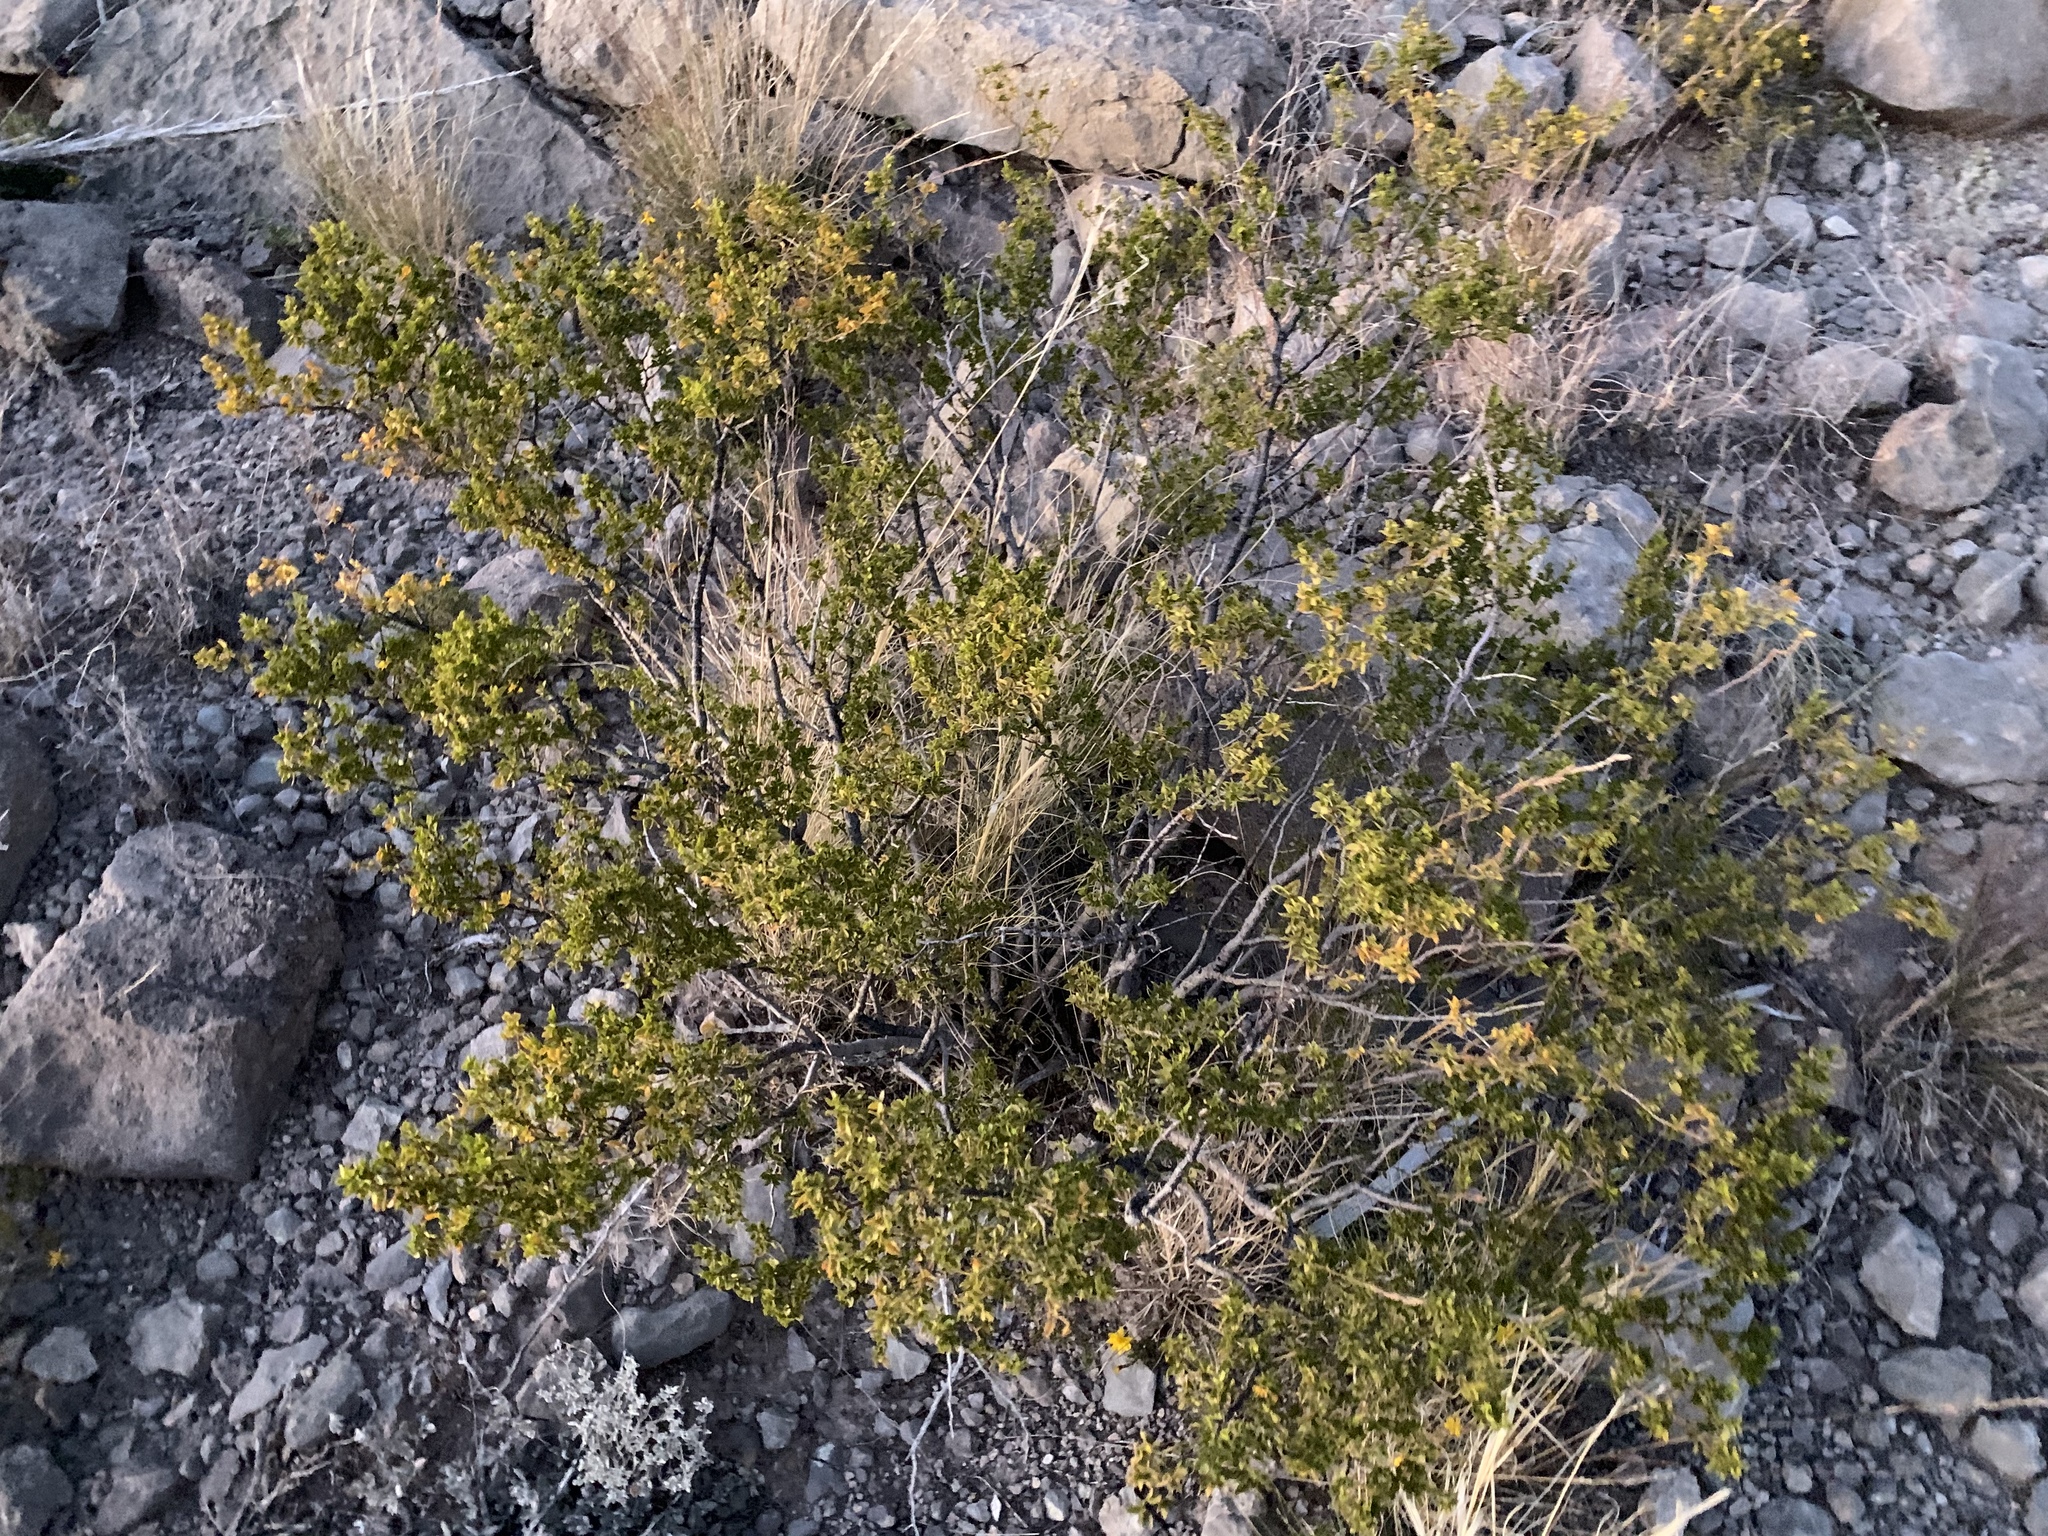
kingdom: Plantae
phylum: Tracheophyta
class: Magnoliopsida
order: Zygophyllales
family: Zygophyllaceae
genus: Larrea
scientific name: Larrea tridentata
